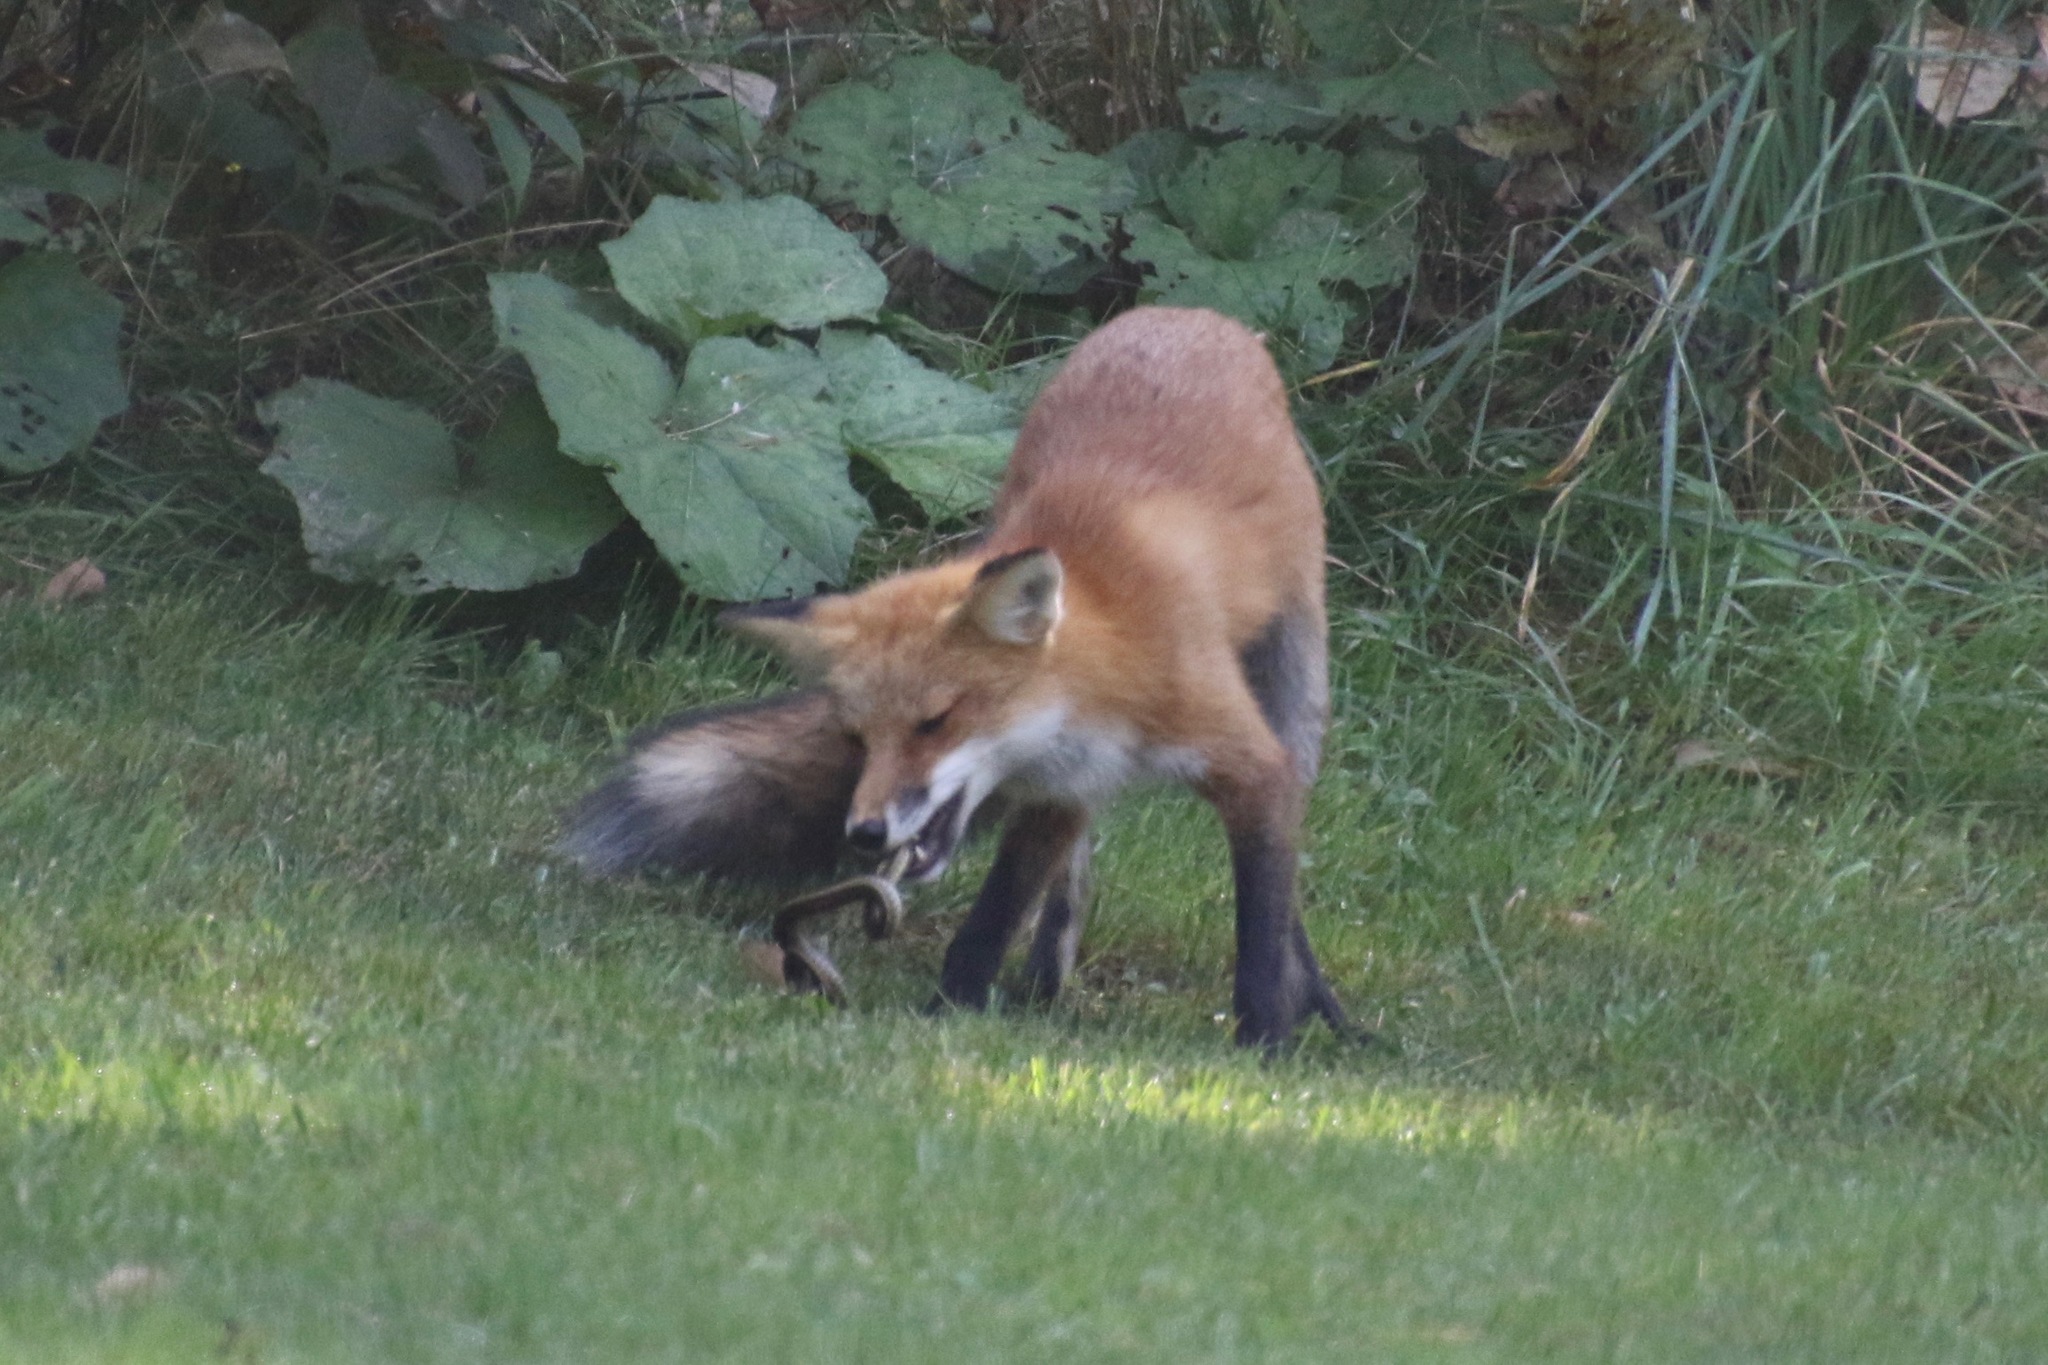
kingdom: Animalia
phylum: Chordata
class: Mammalia
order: Carnivora
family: Canidae
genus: Vulpes
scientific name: Vulpes vulpes
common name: Red fox
